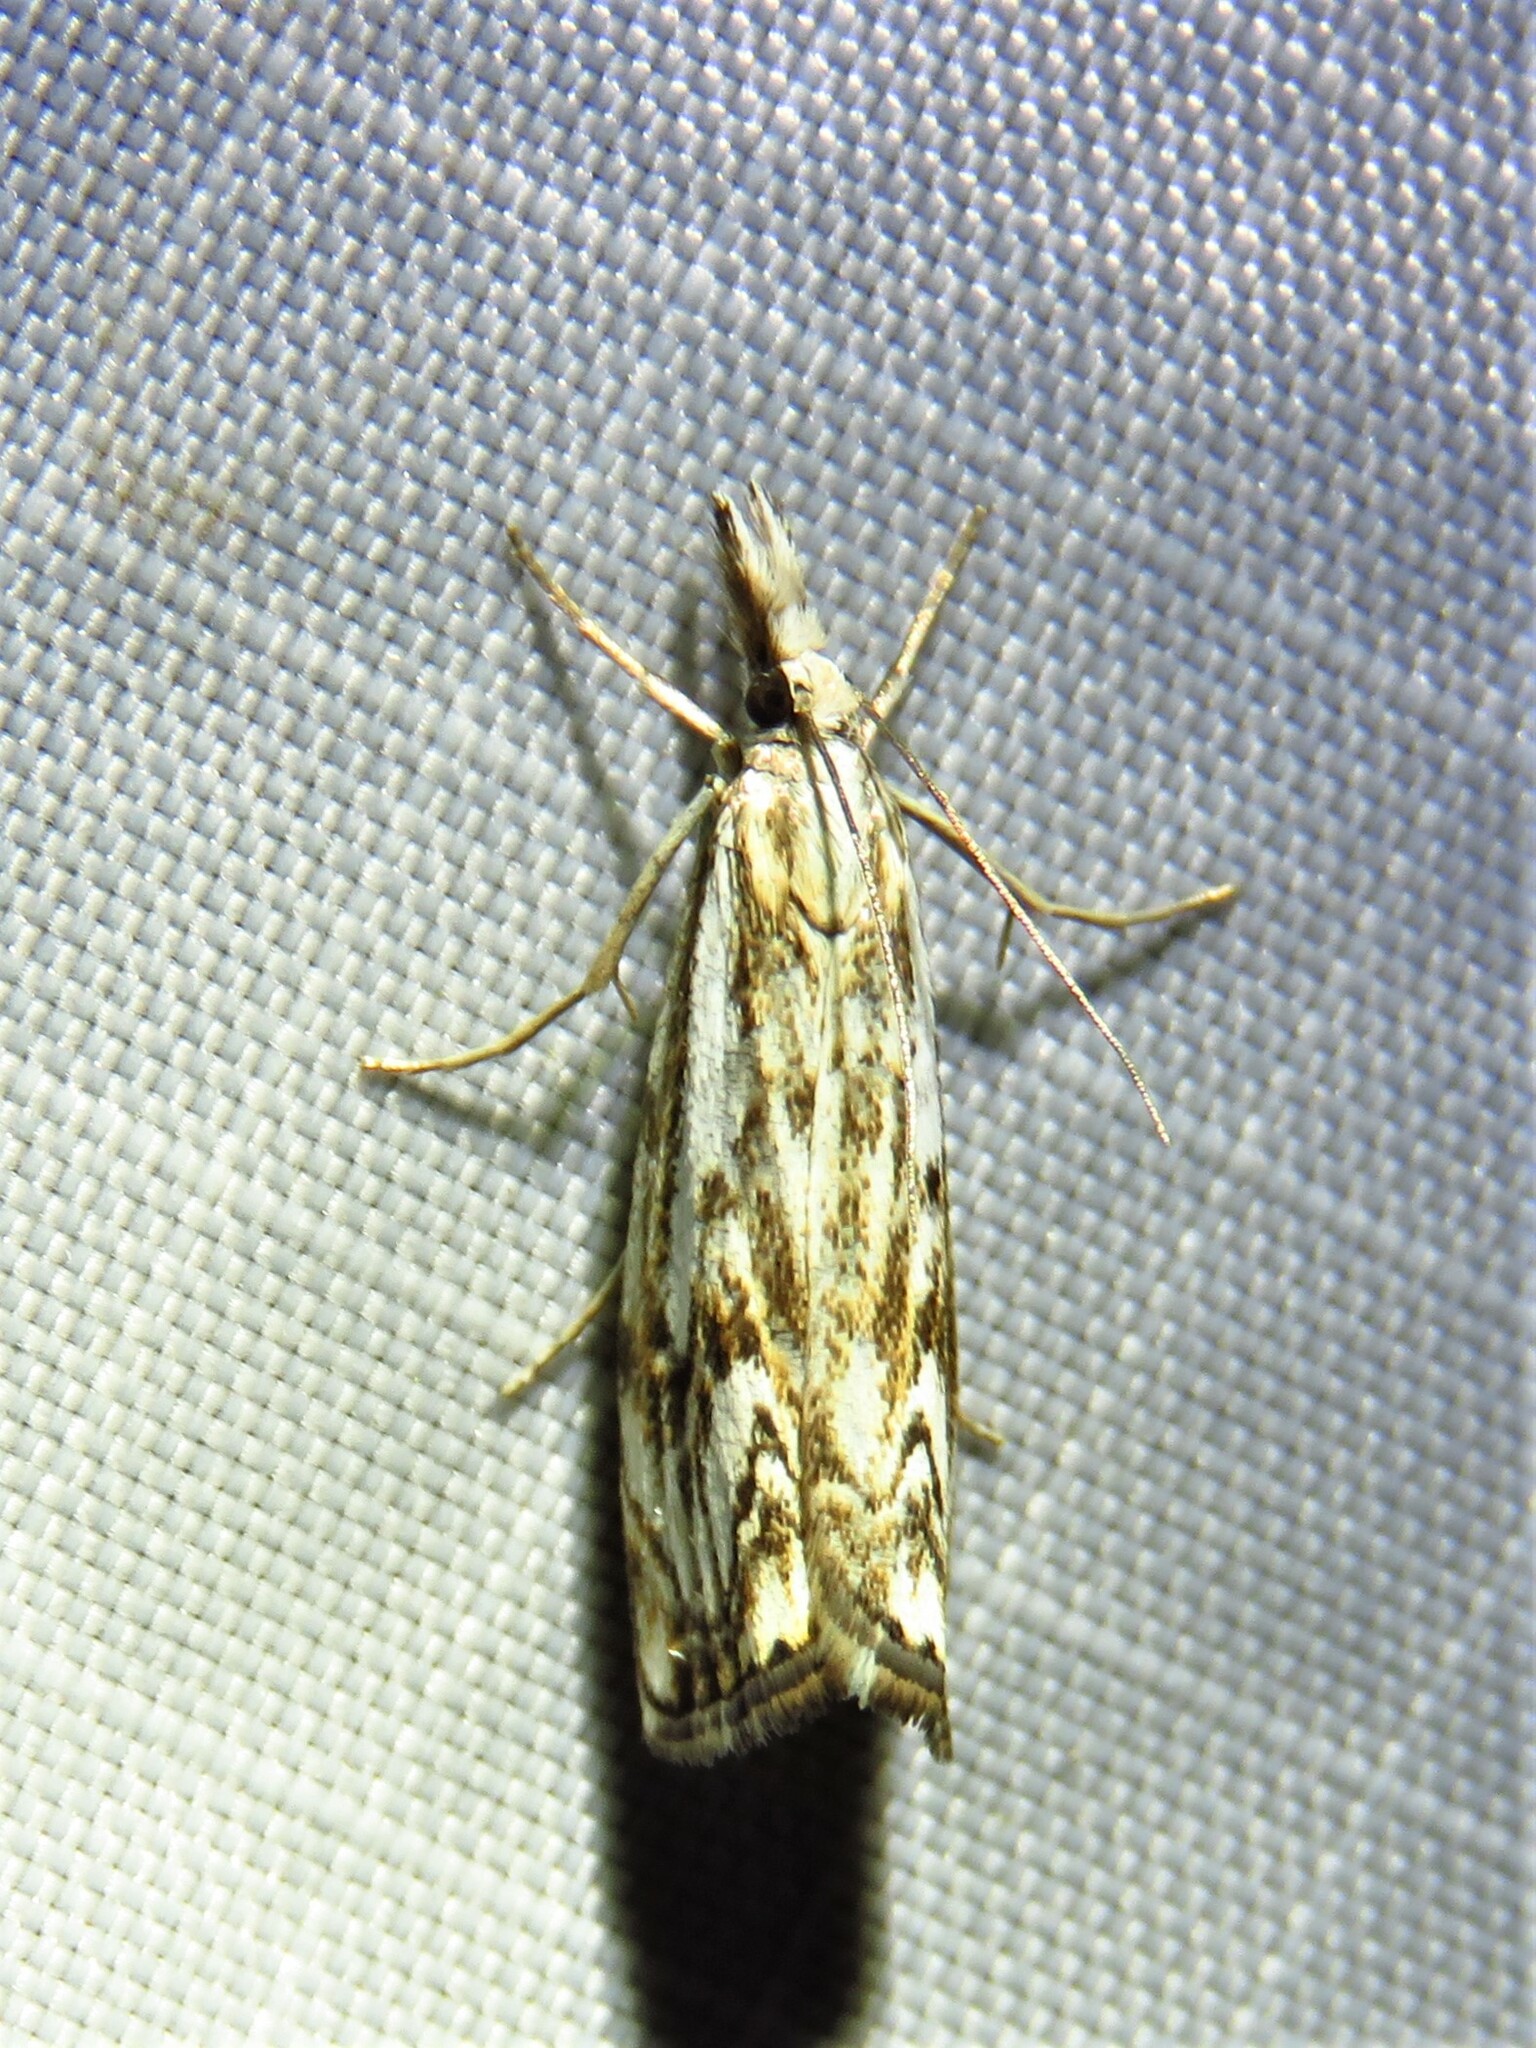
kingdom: Animalia
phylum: Arthropoda
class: Insecta
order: Lepidoptera
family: Crambidae
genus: Catoptria
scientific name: Catoptria falsella
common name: Chequered grass-veneer
